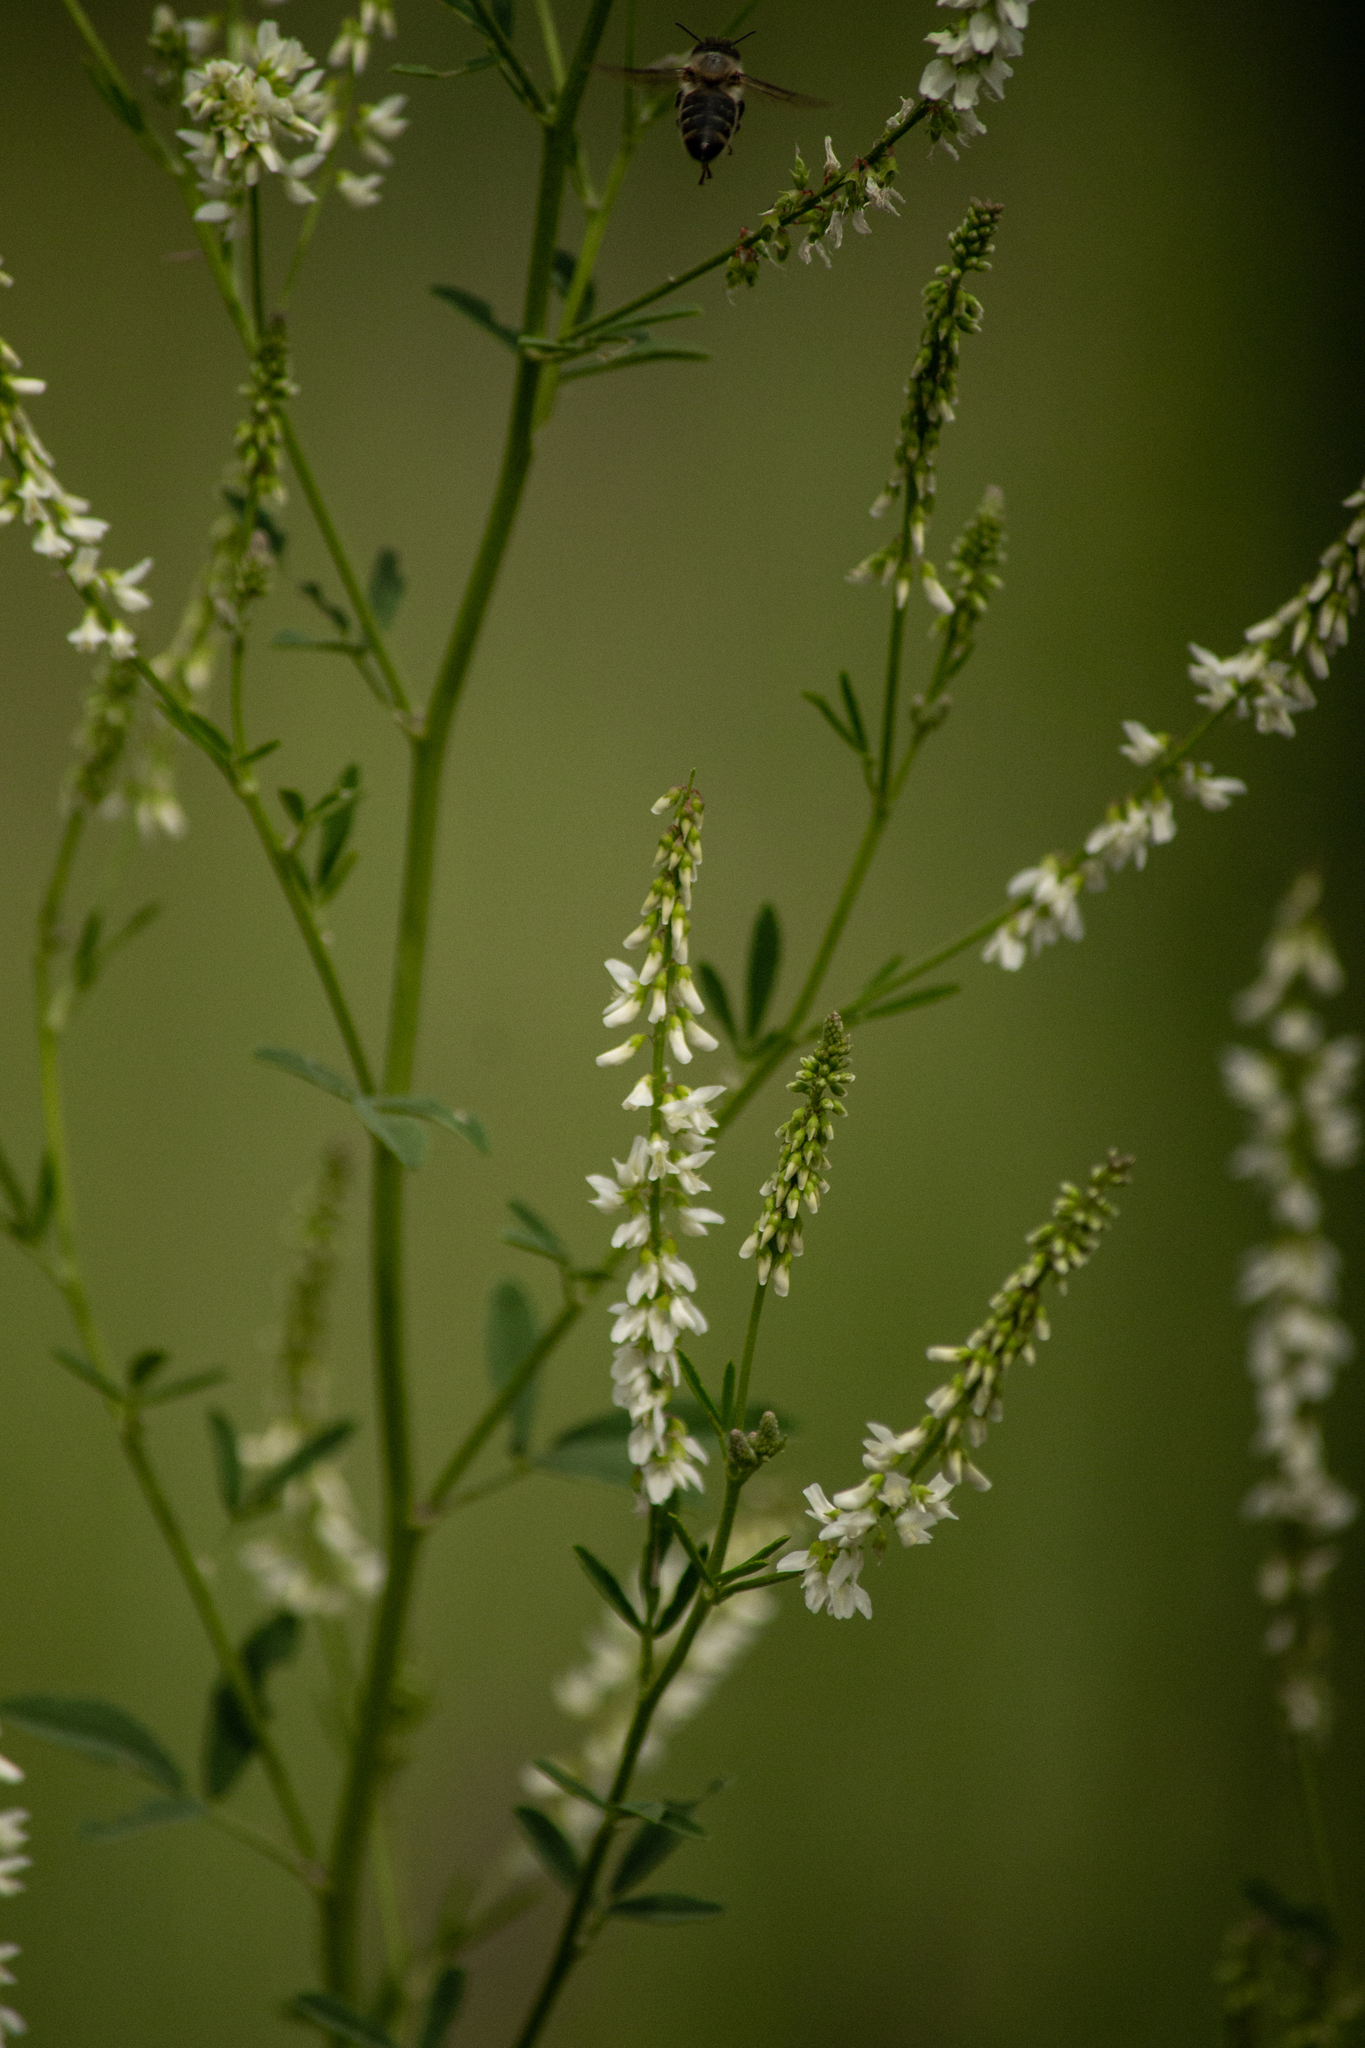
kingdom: Plantae
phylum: Tracheophyta
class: Magnoliopsida
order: Fabales
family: Fabaceae
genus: Melilotus
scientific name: Melilotus albus
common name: White melilot
